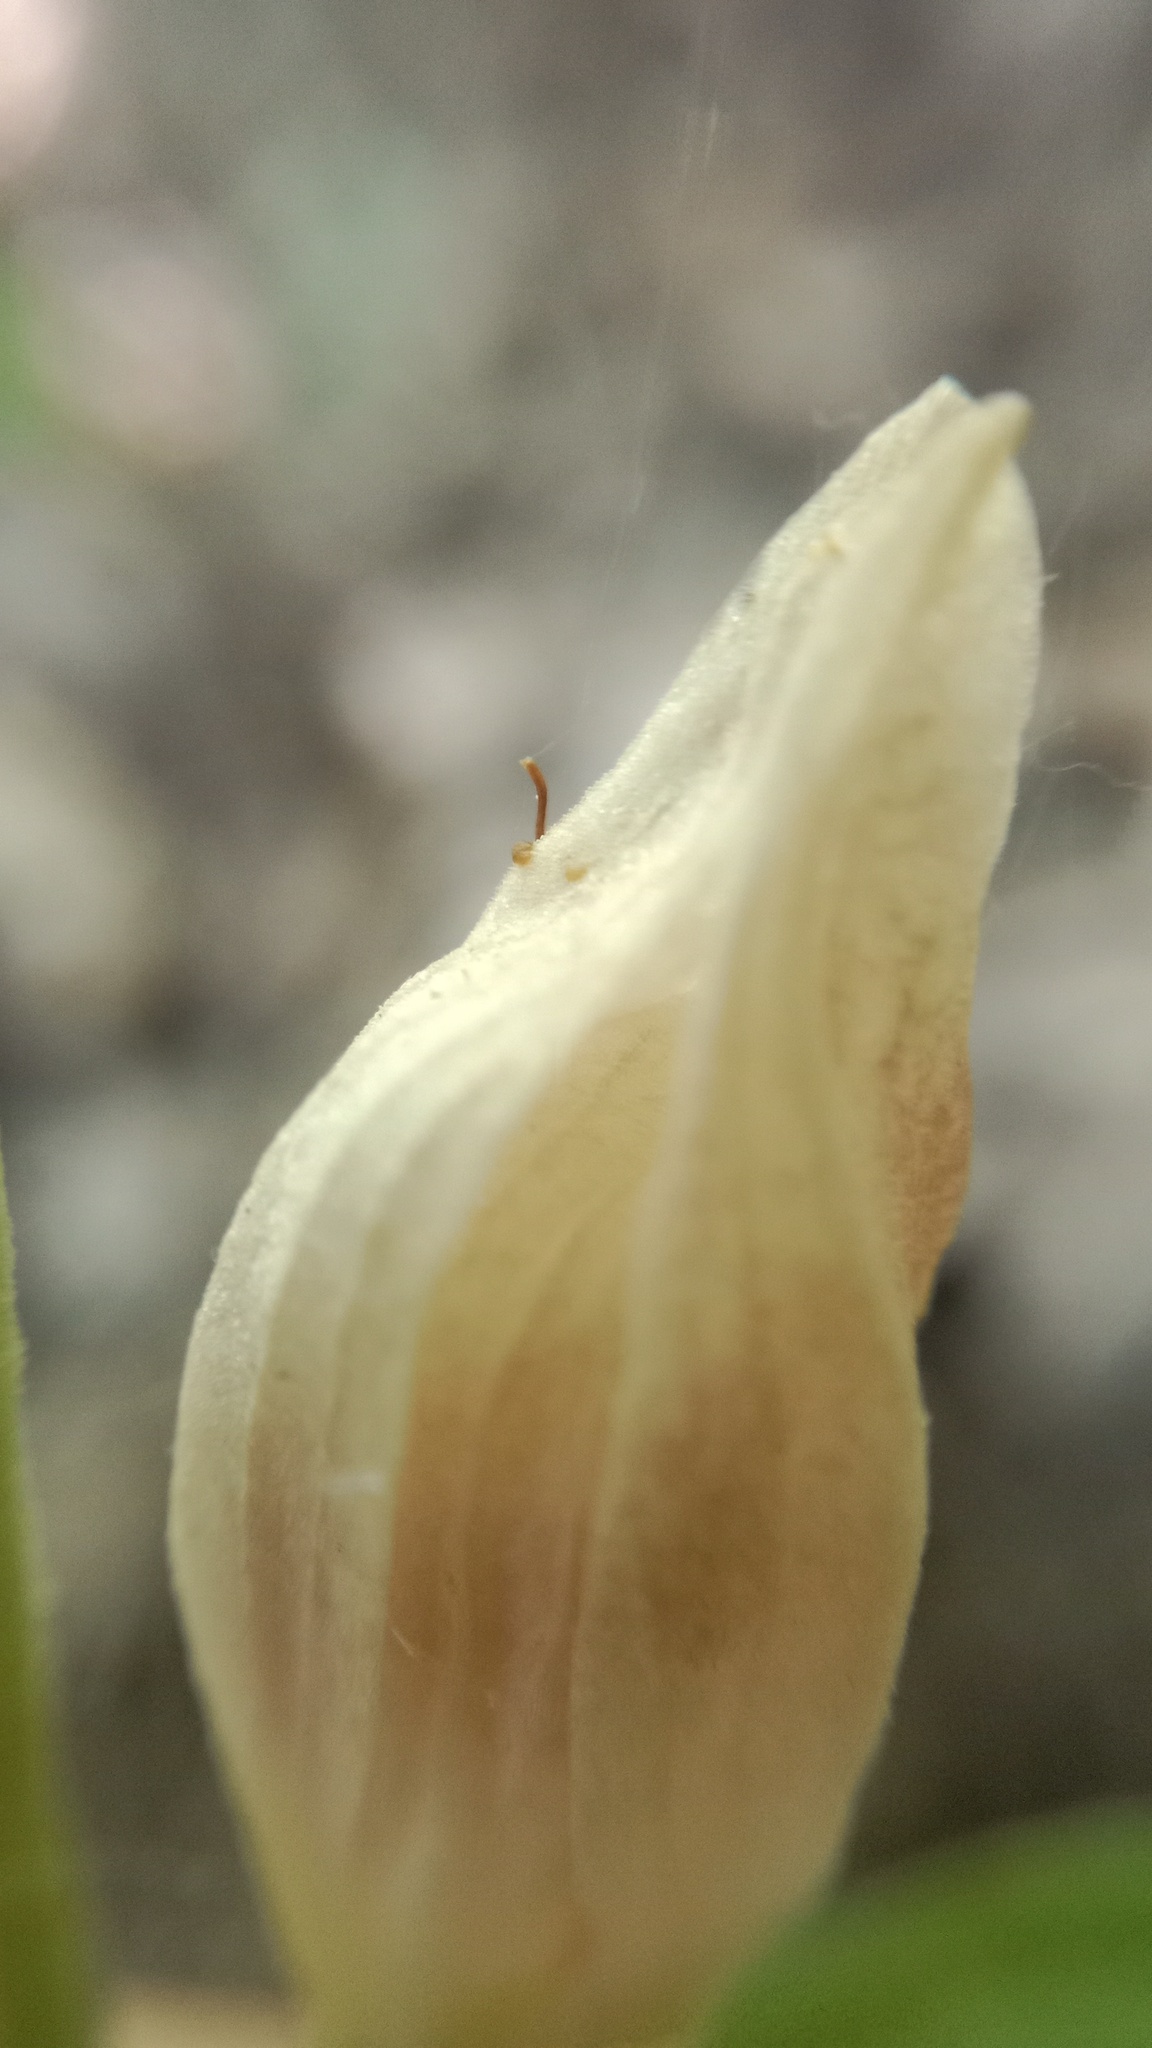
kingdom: Plantae
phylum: Tracheophyta
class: Liliopsida
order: Asparagales
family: Orchidaceae
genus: Cephalanthera
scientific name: Cephalanthera damasonium
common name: White helleborine
